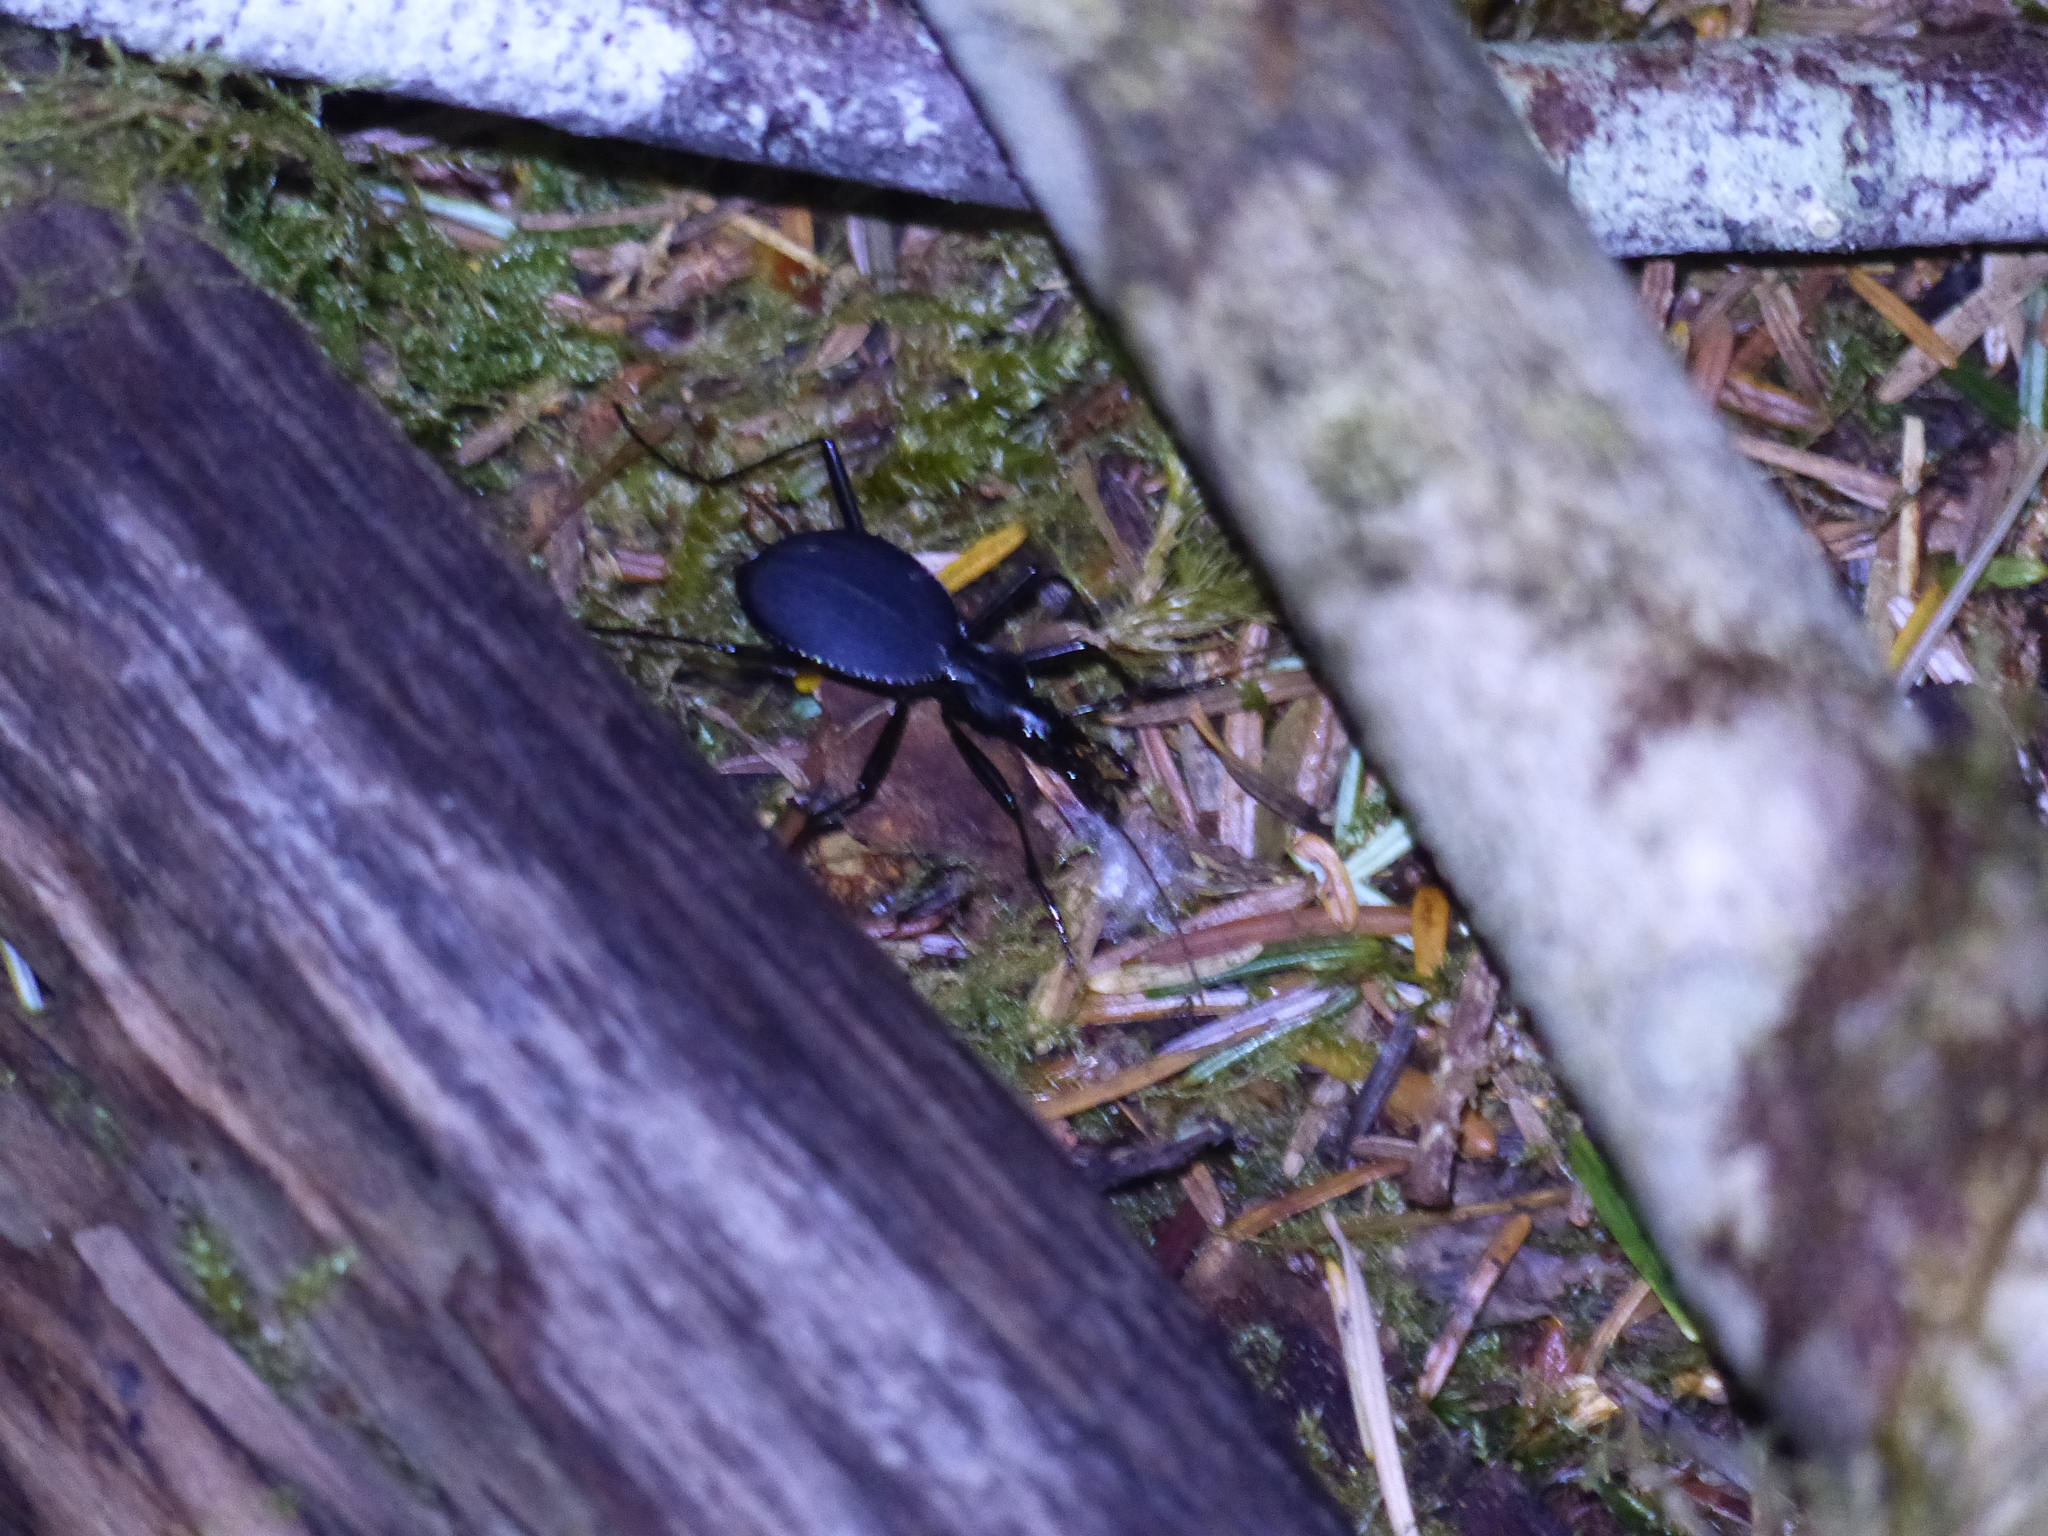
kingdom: Animalia
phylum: Arthropoda
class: Insecta
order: Coleoptera
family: Carabidae
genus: Scaphinotus
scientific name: Scaphinotus angusticollis
